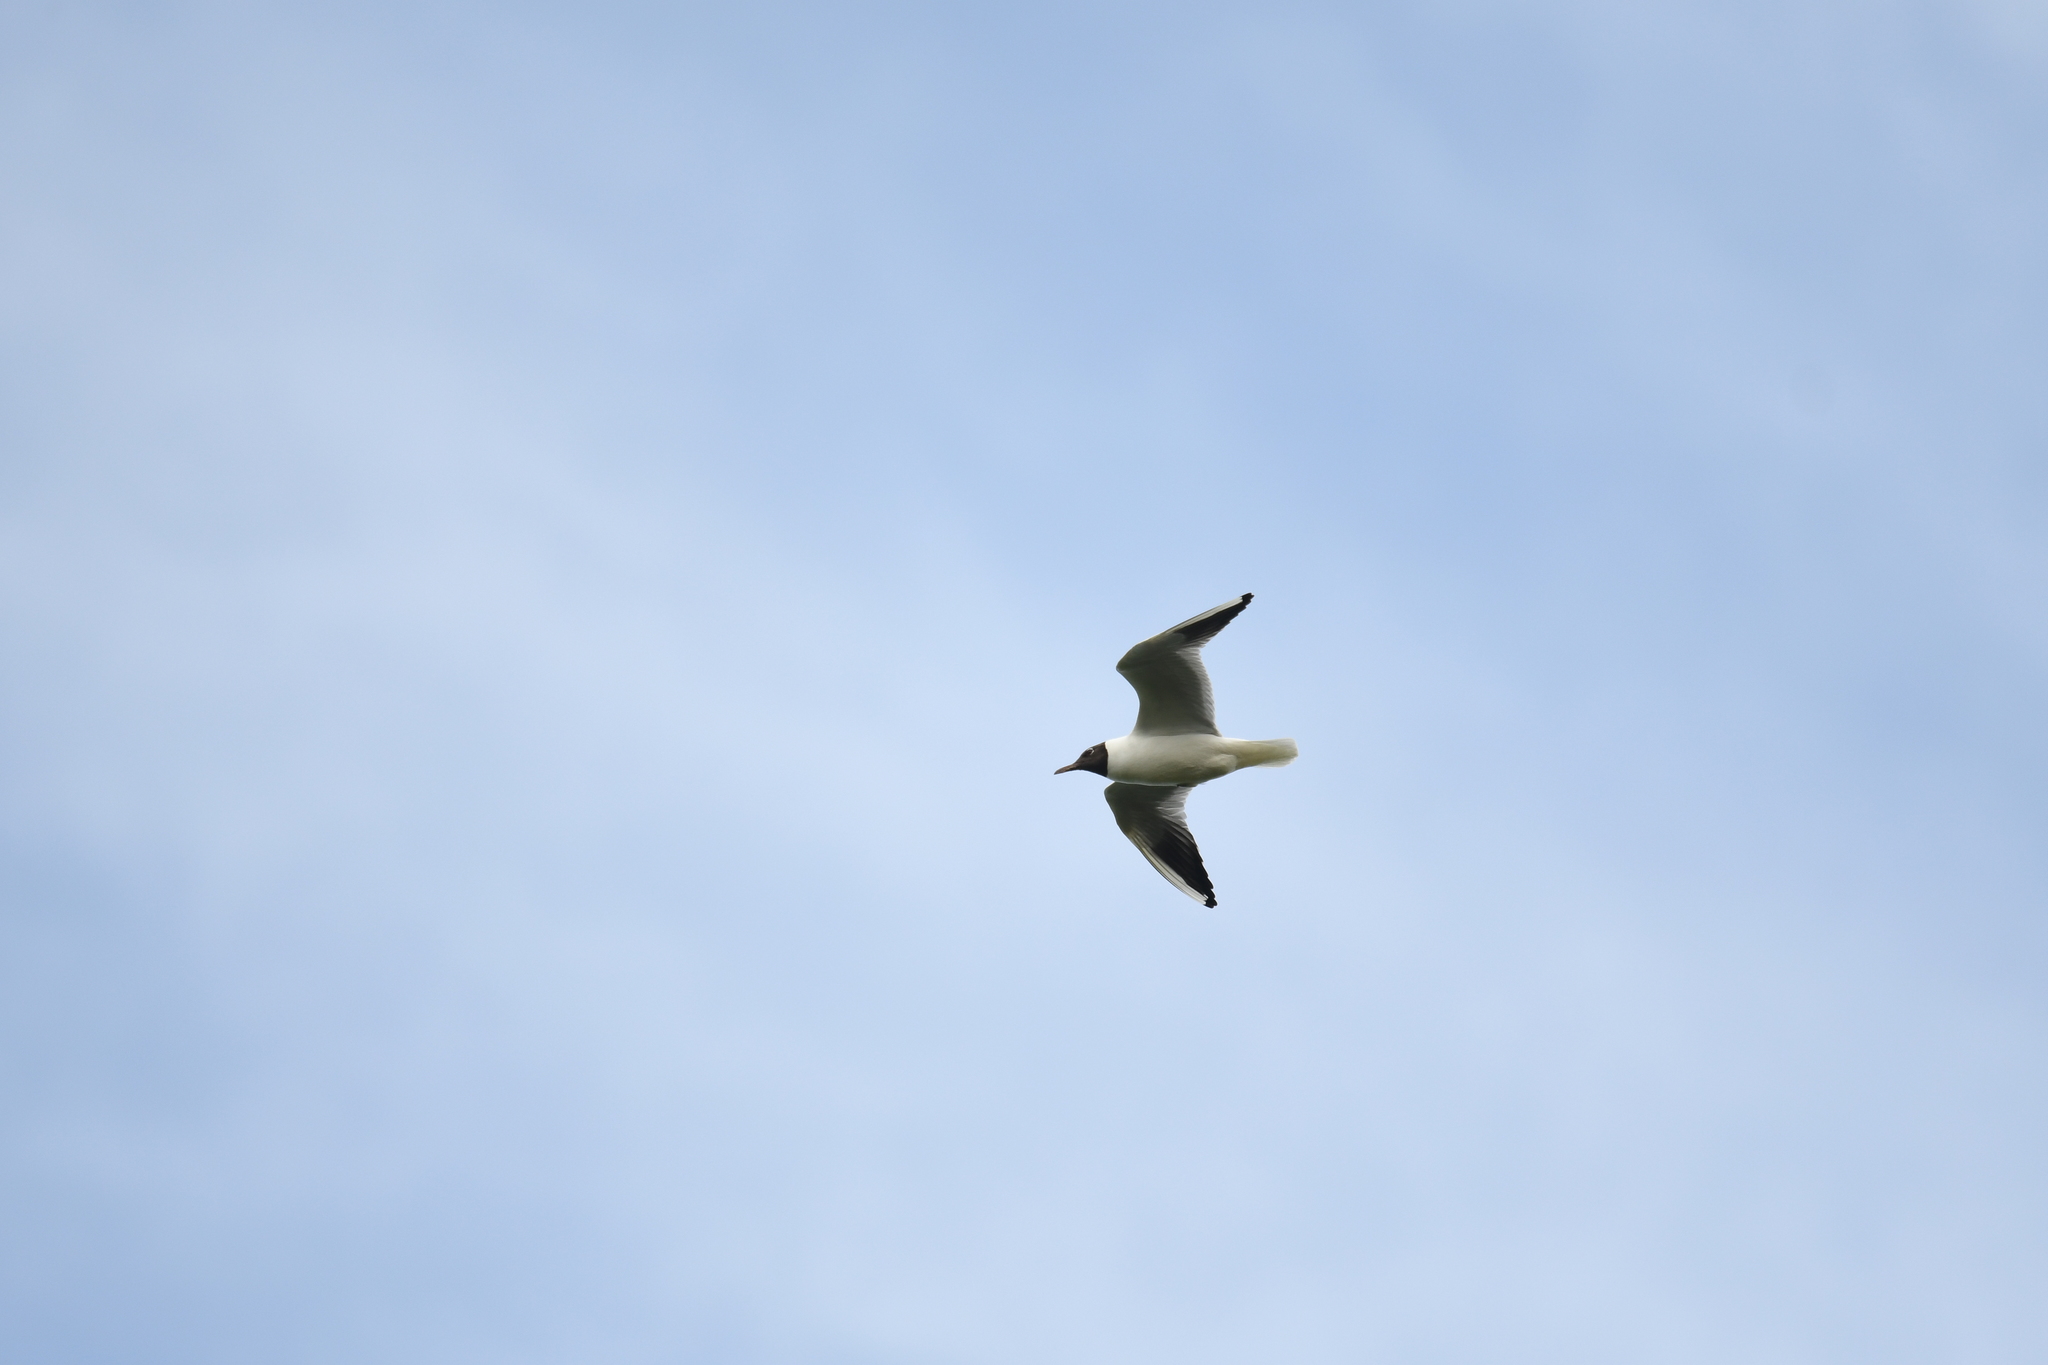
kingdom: Animalia
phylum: Chordata
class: Aves
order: Charadriiformes
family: Laridae
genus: Chroicocephalus
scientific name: Chroicocephalus ridibundus
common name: Black-headed gull
